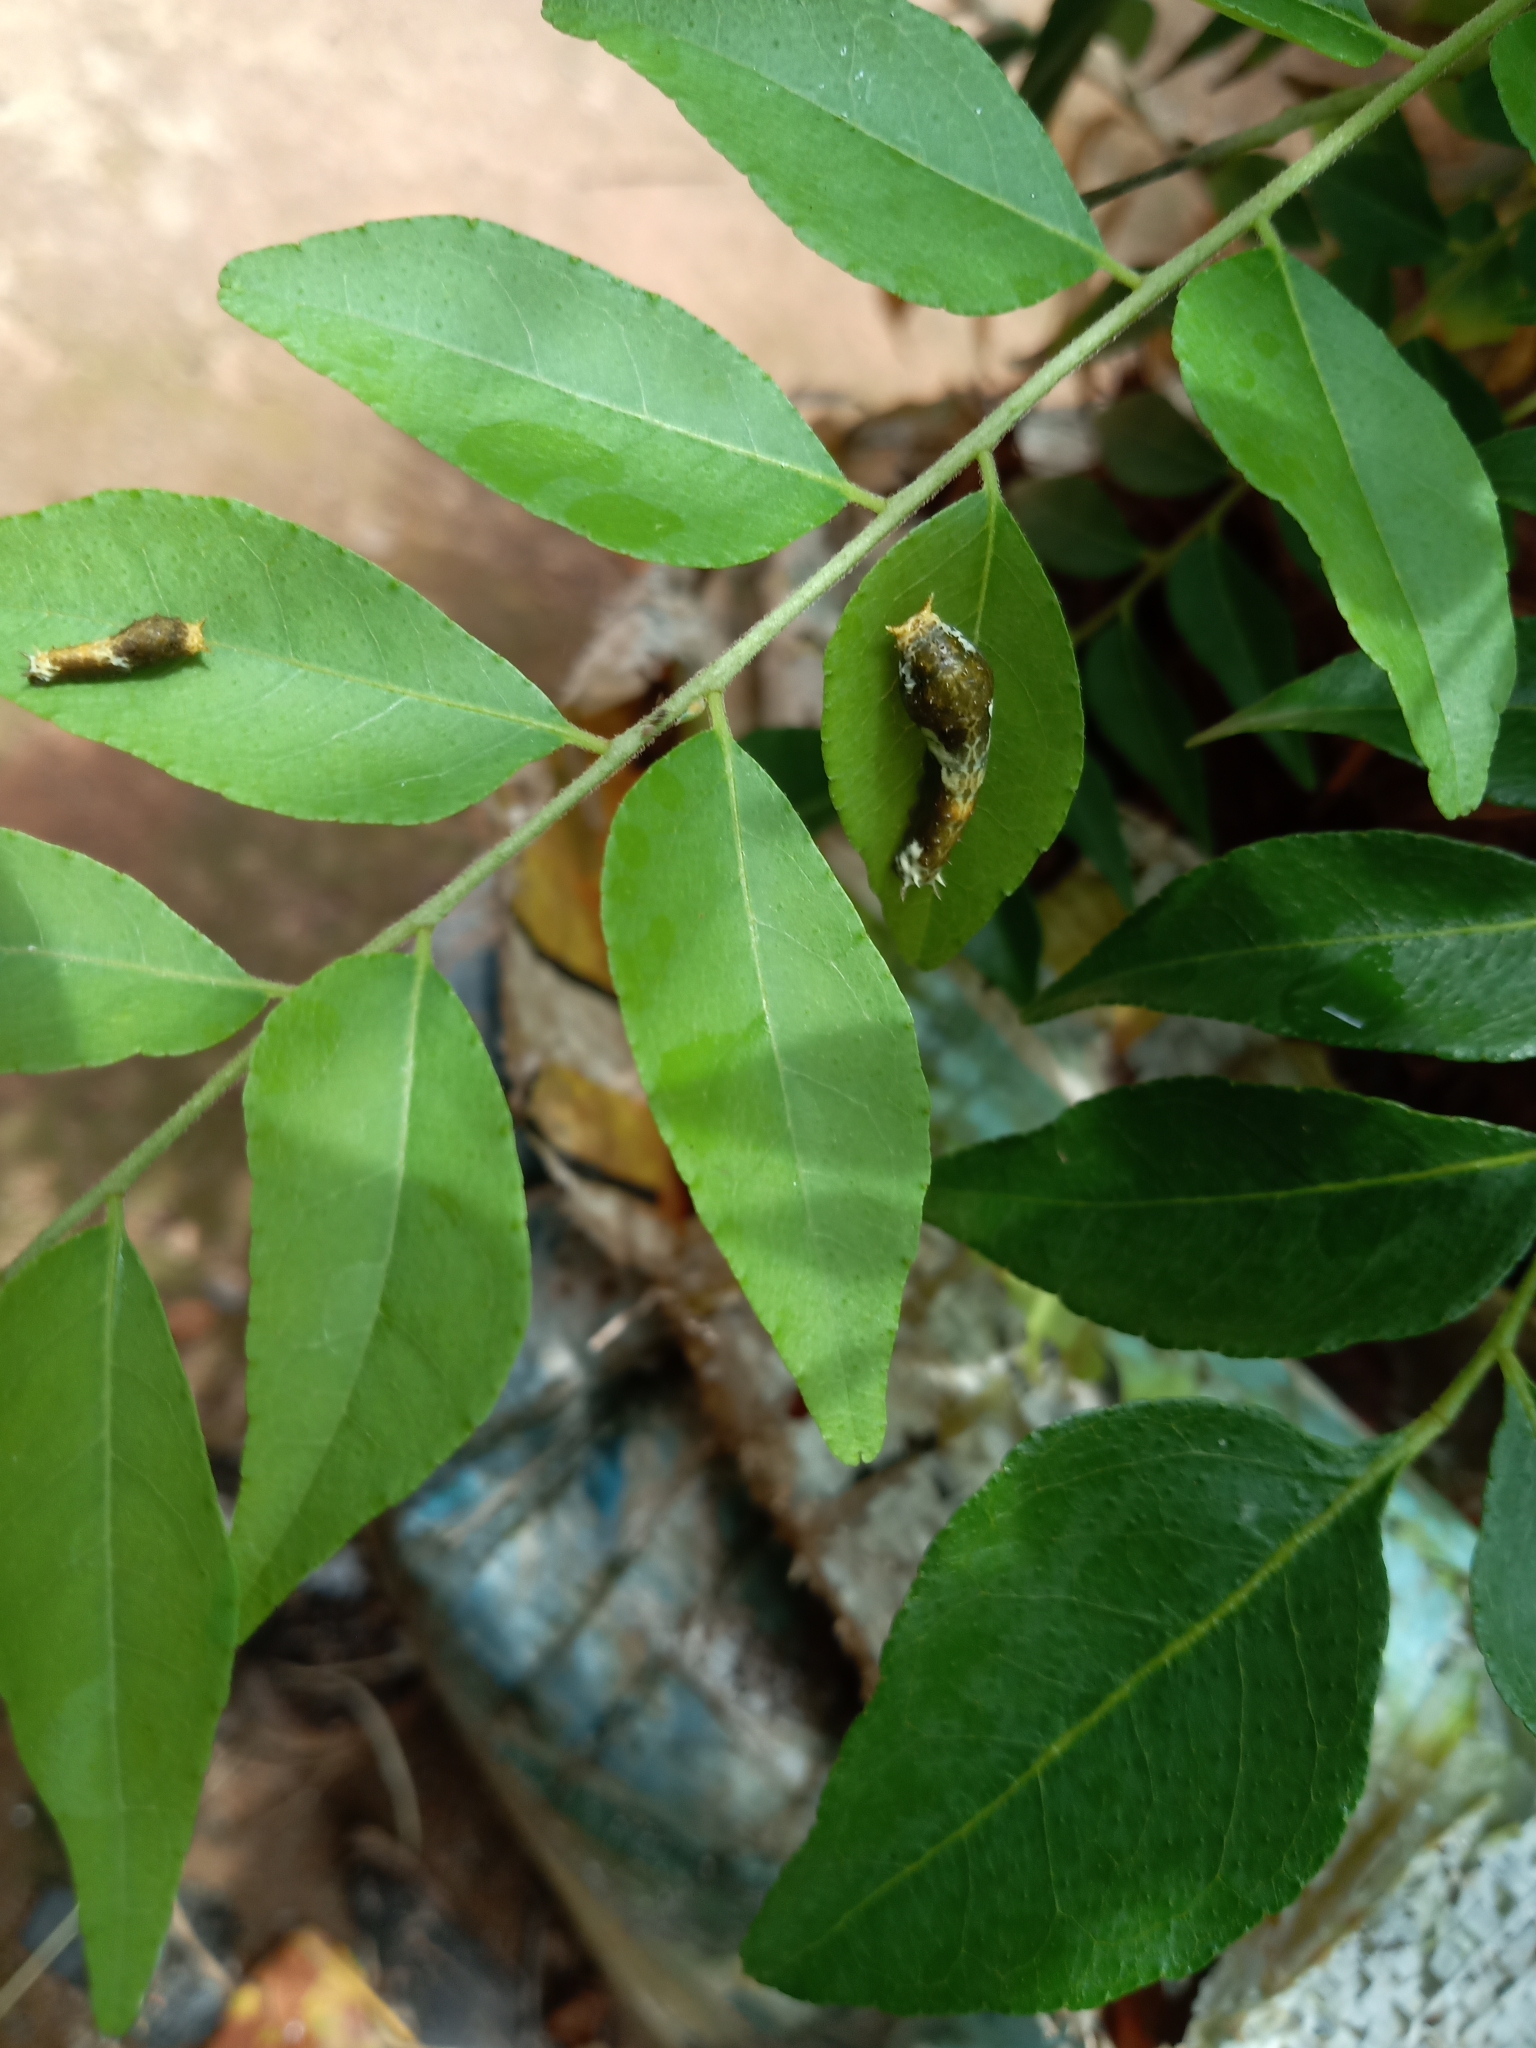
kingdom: Animalia
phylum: Arthropoda
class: Insecta
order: Lepidoptera
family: Papilionidae
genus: Papilio
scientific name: Papilio polytes
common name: Common mormon
